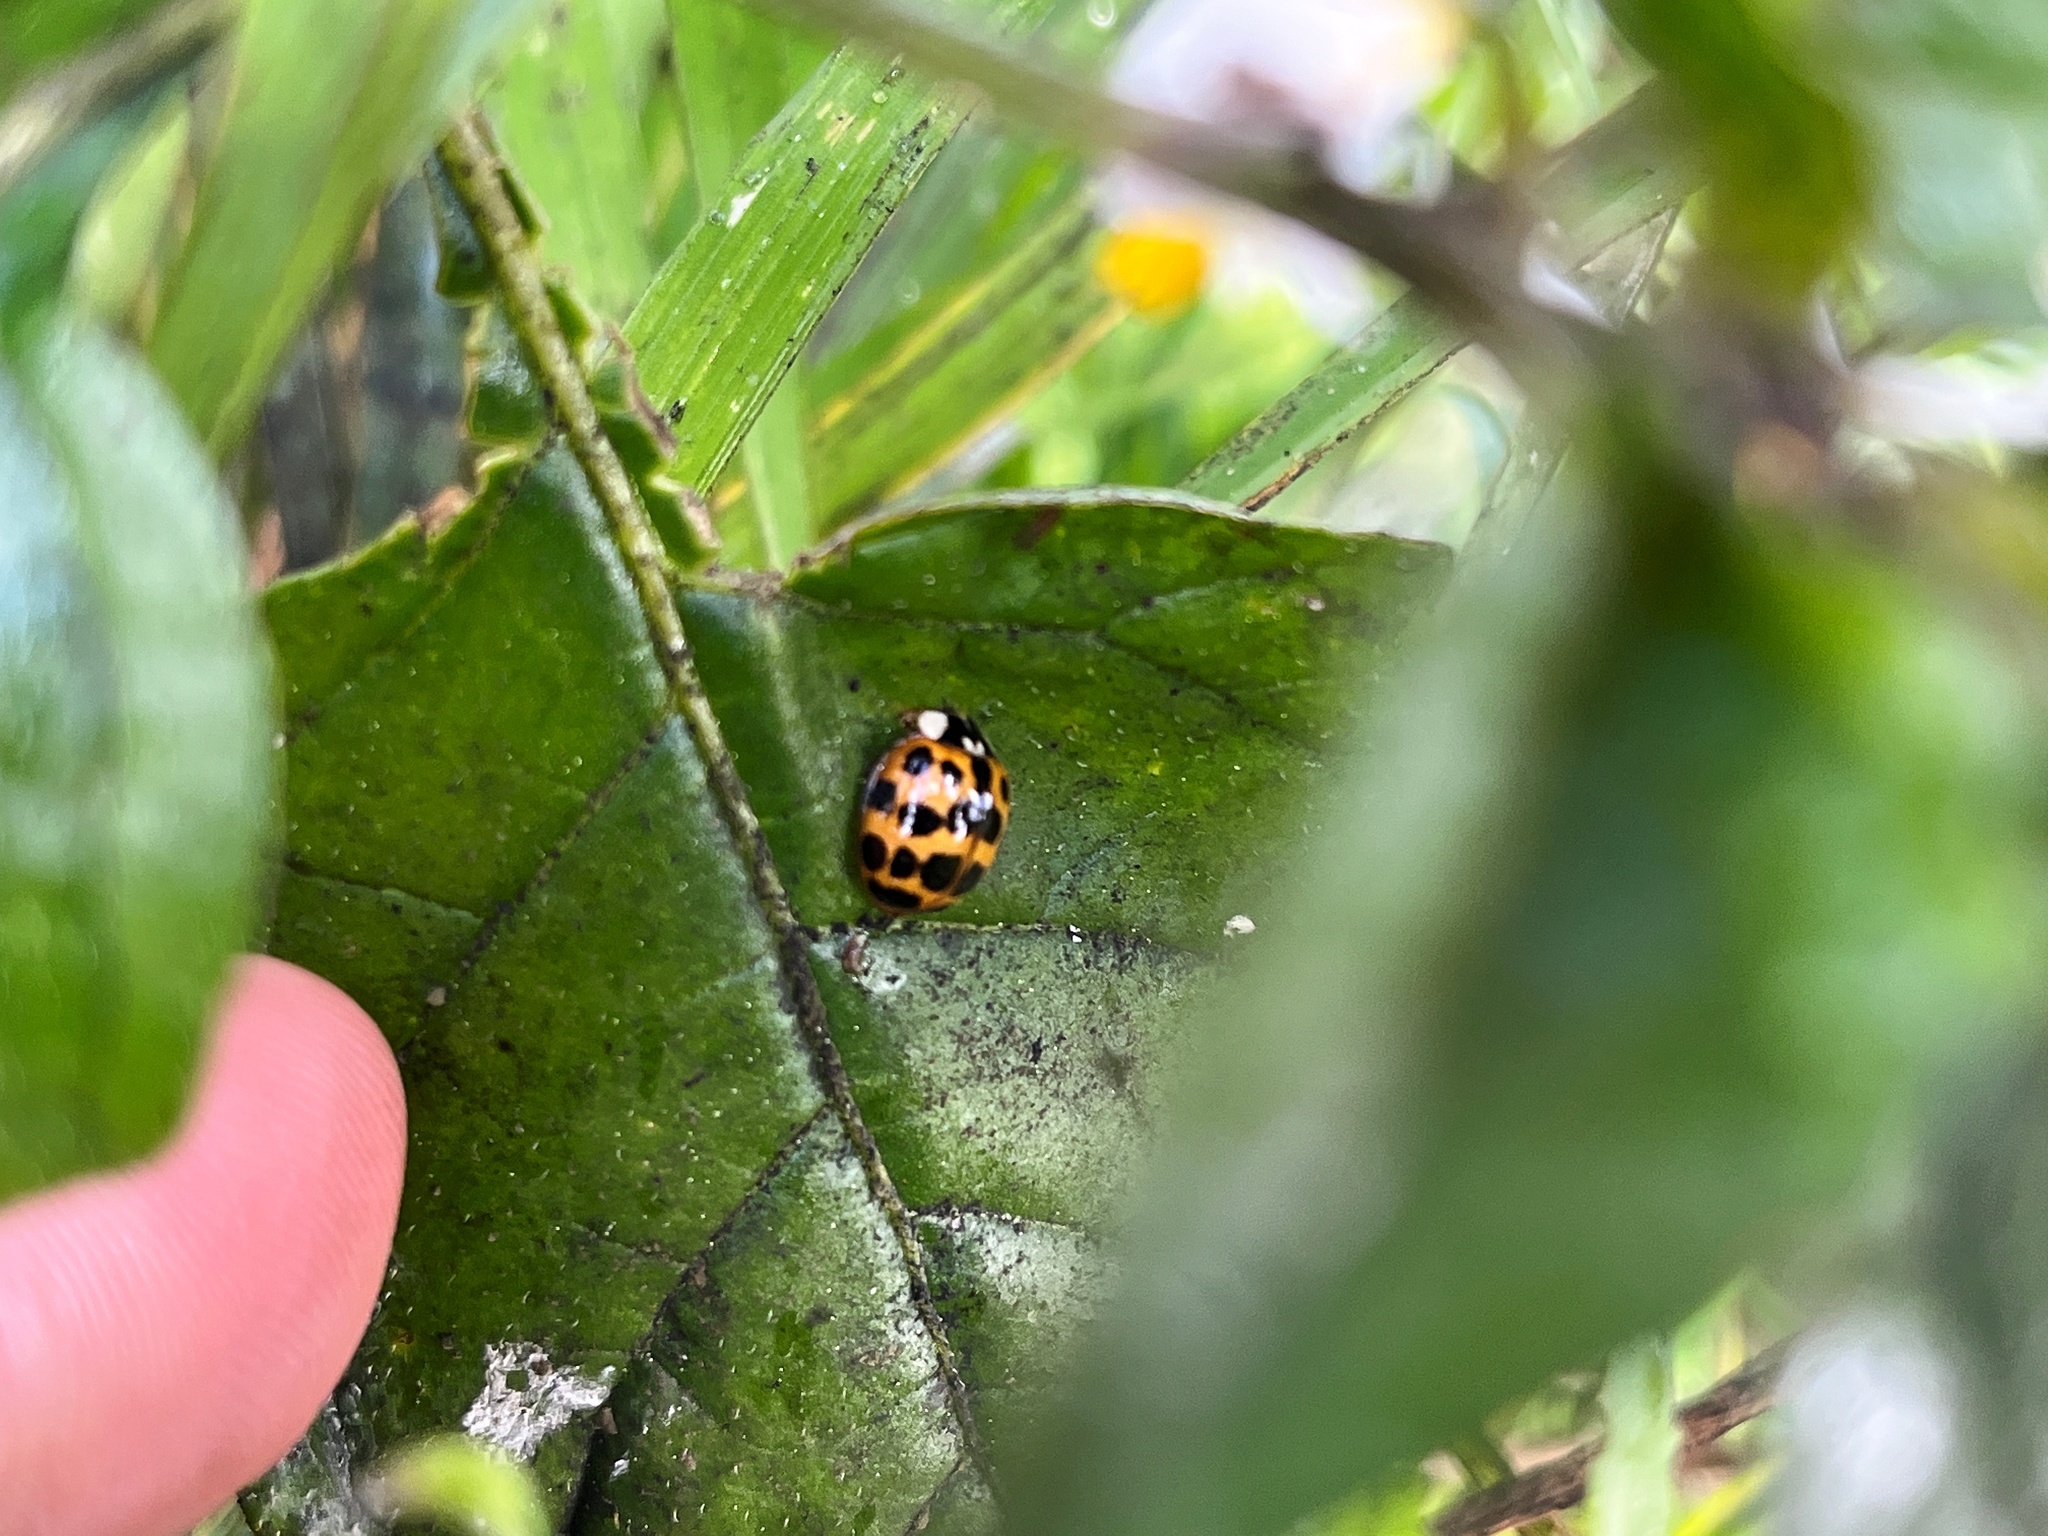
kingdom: Animalia
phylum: Arthropoda
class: Insecta
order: Coleoptera
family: Coccinellidae
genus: Harmonia
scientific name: Harmonia axyridis
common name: Harlequin ladybird
